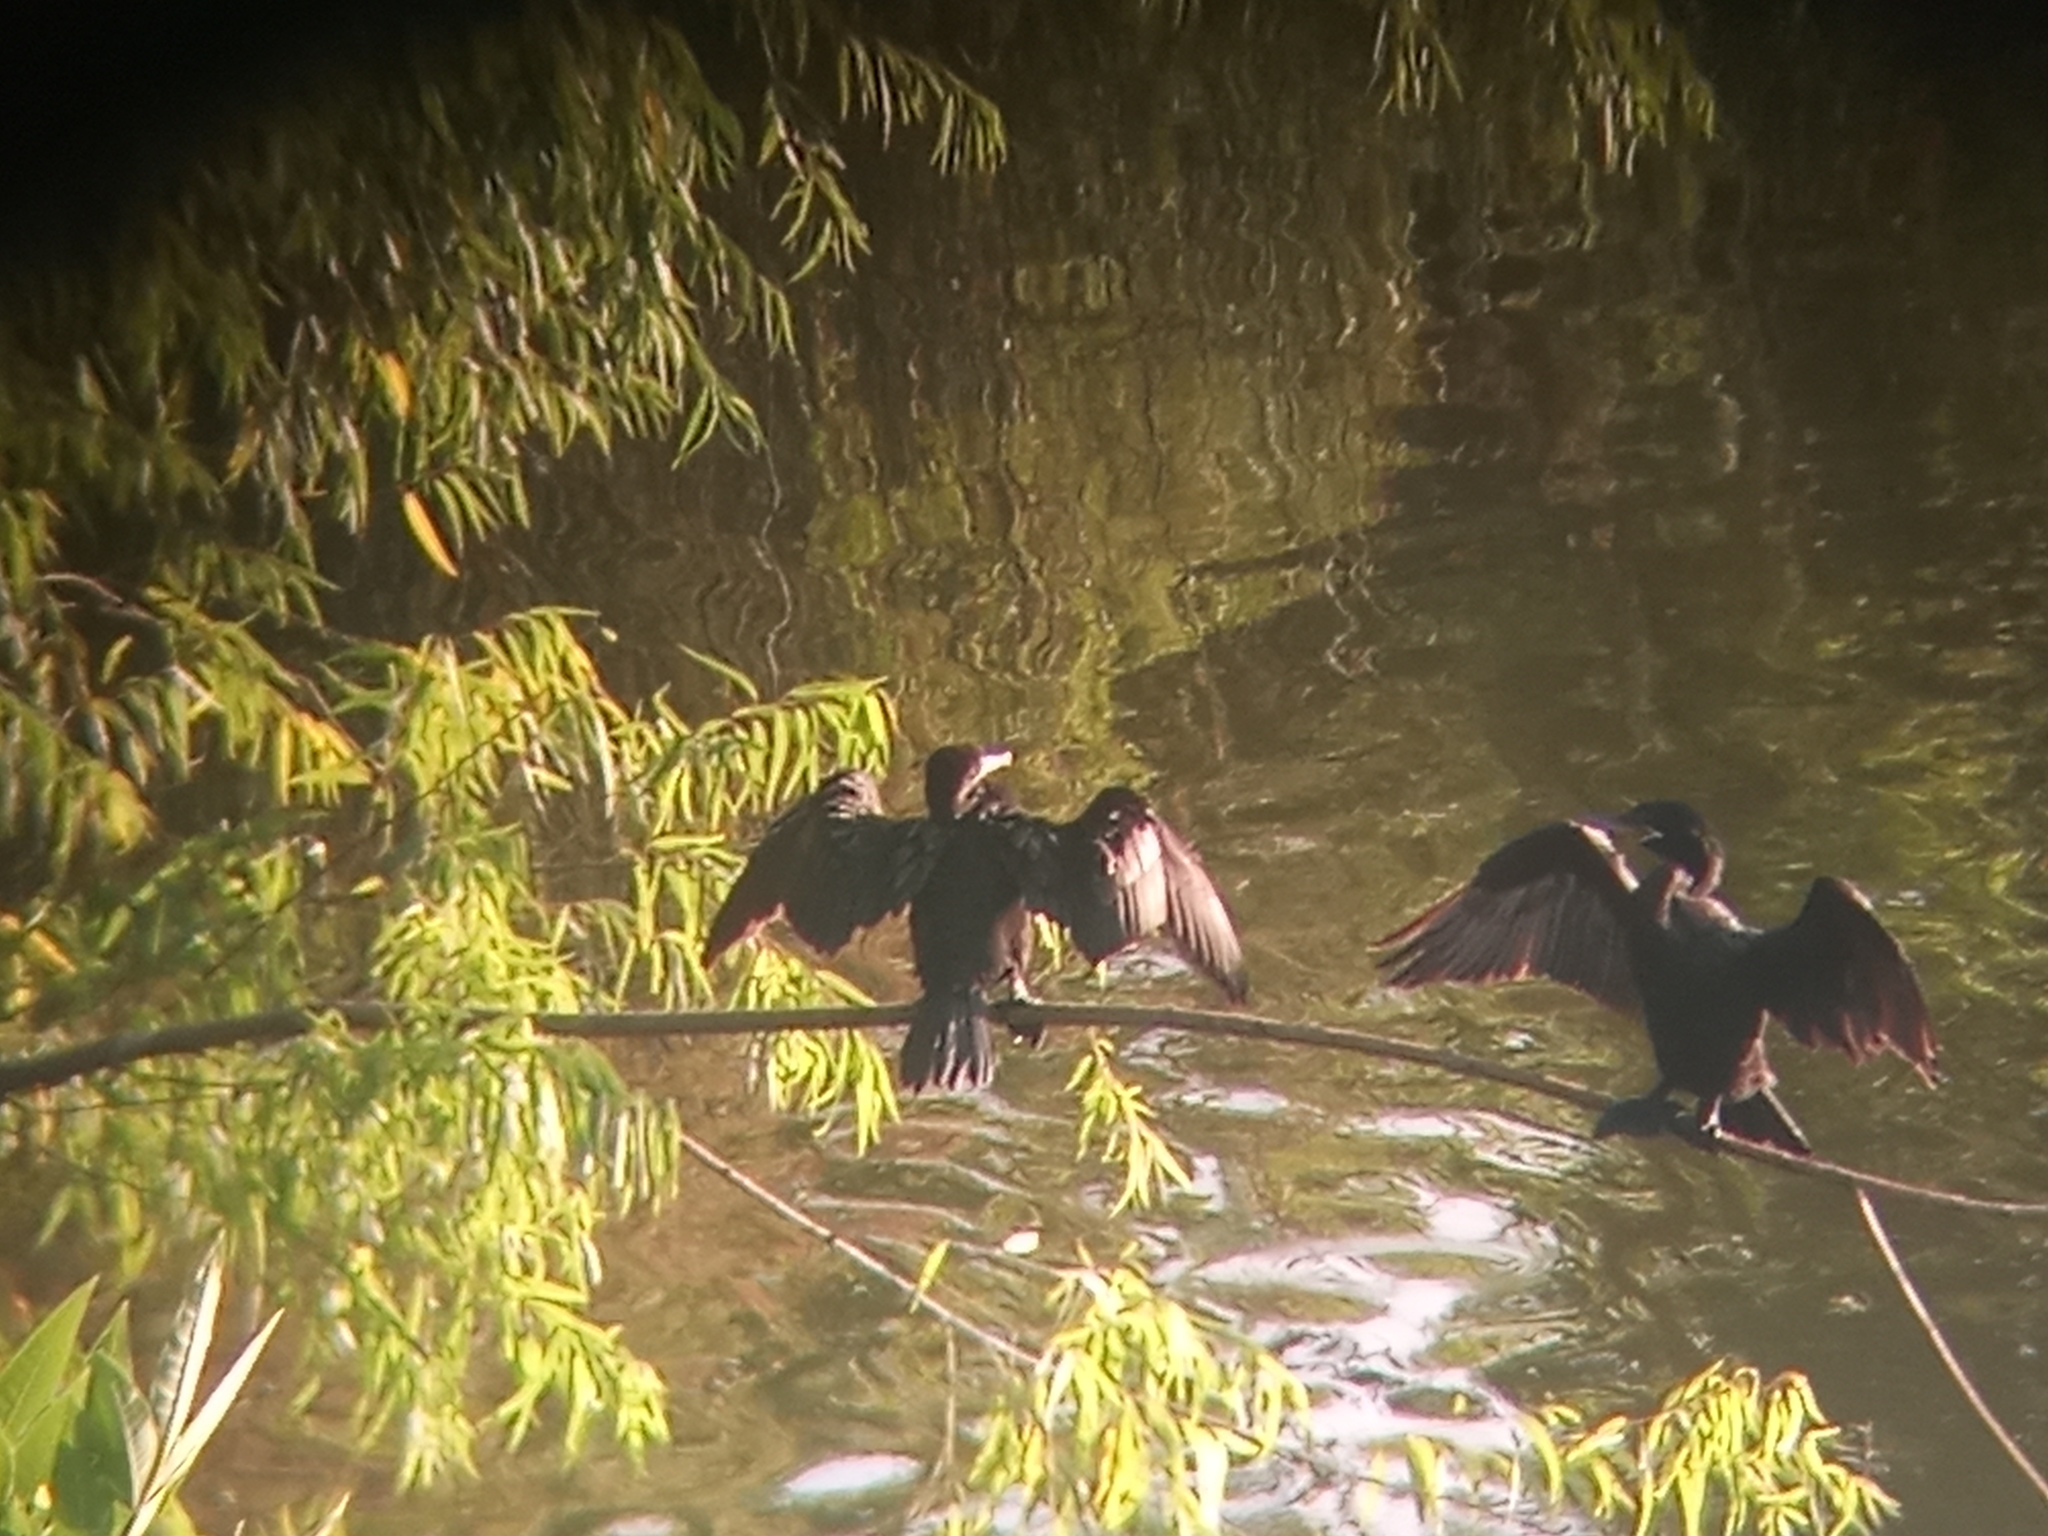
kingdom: Animalia
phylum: Chordata
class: Aves
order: Suliformes
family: Phalacrocoracidae
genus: Phalacrocorax
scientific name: Phalacrocorax brasilianus
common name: Neotropic cormorant
